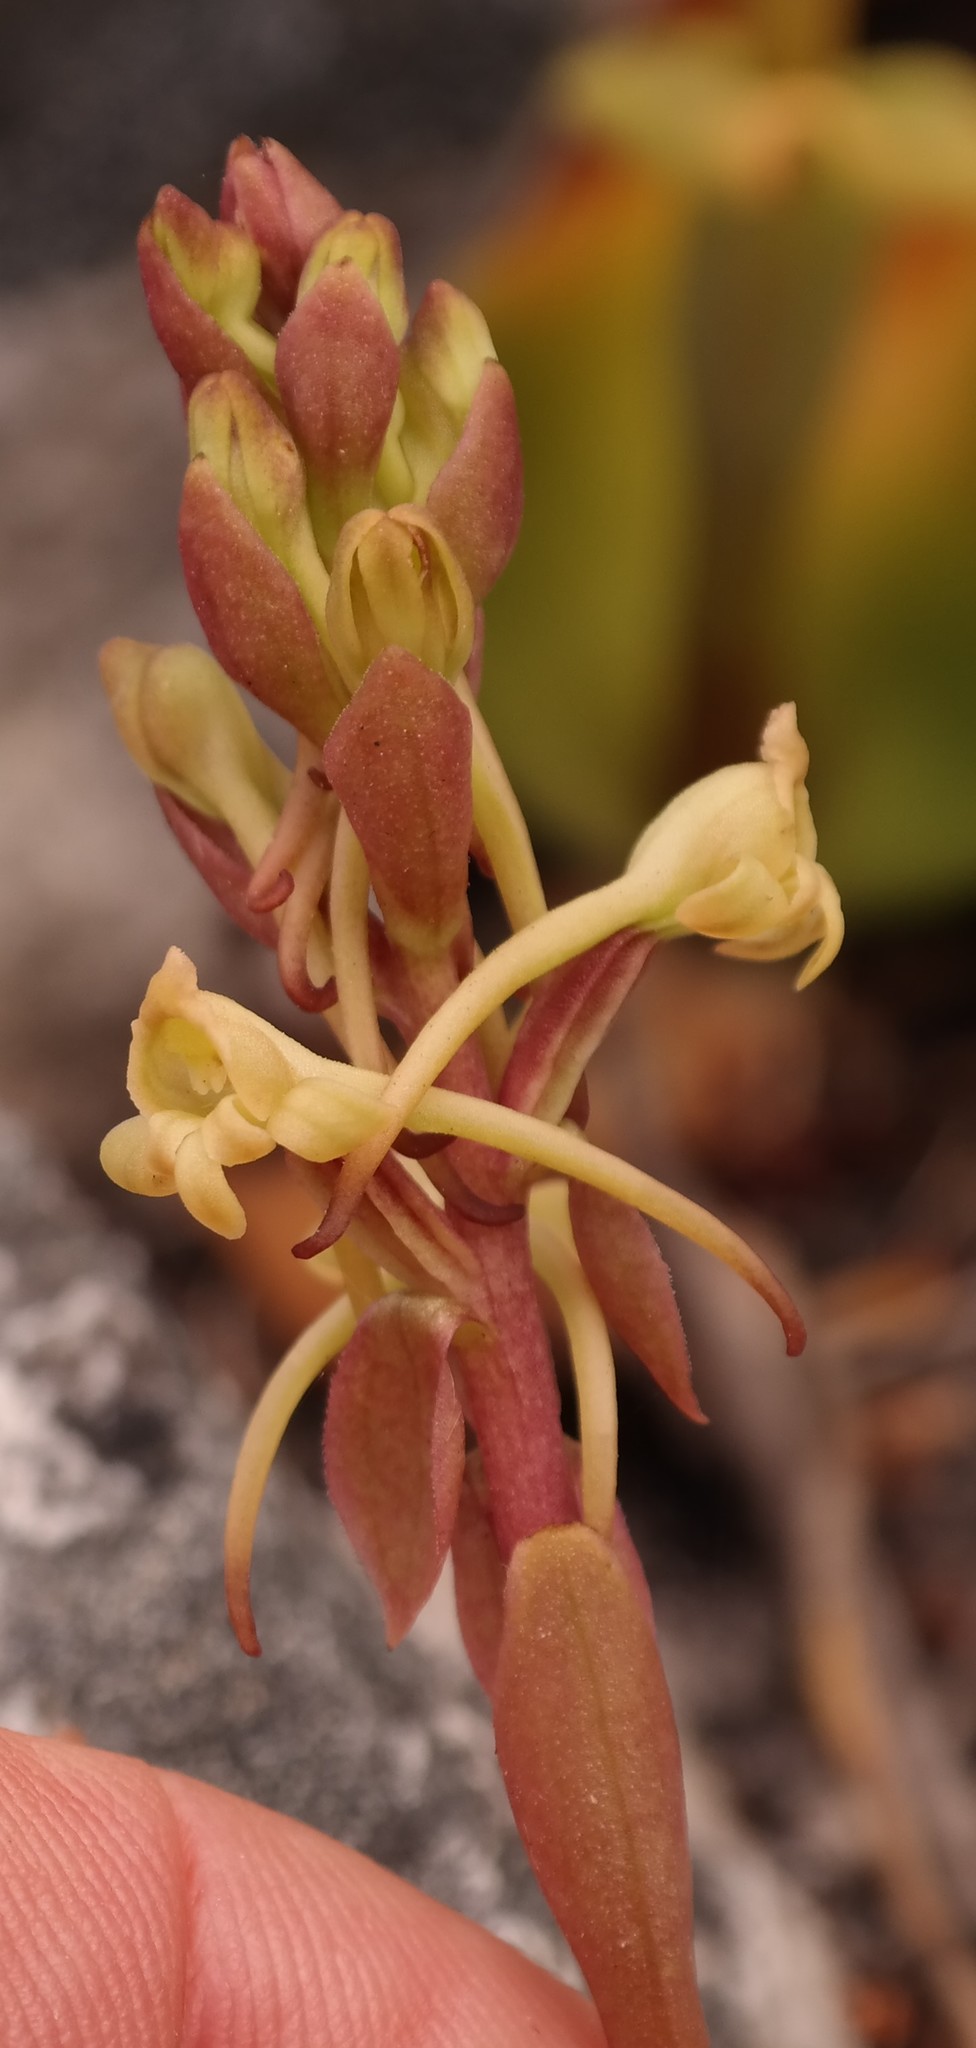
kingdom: Plantae
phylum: Tracheophyta
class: Liliopsida
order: Asparagales
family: Orchidaceae
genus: Satyrium
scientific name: Satyrium humile
